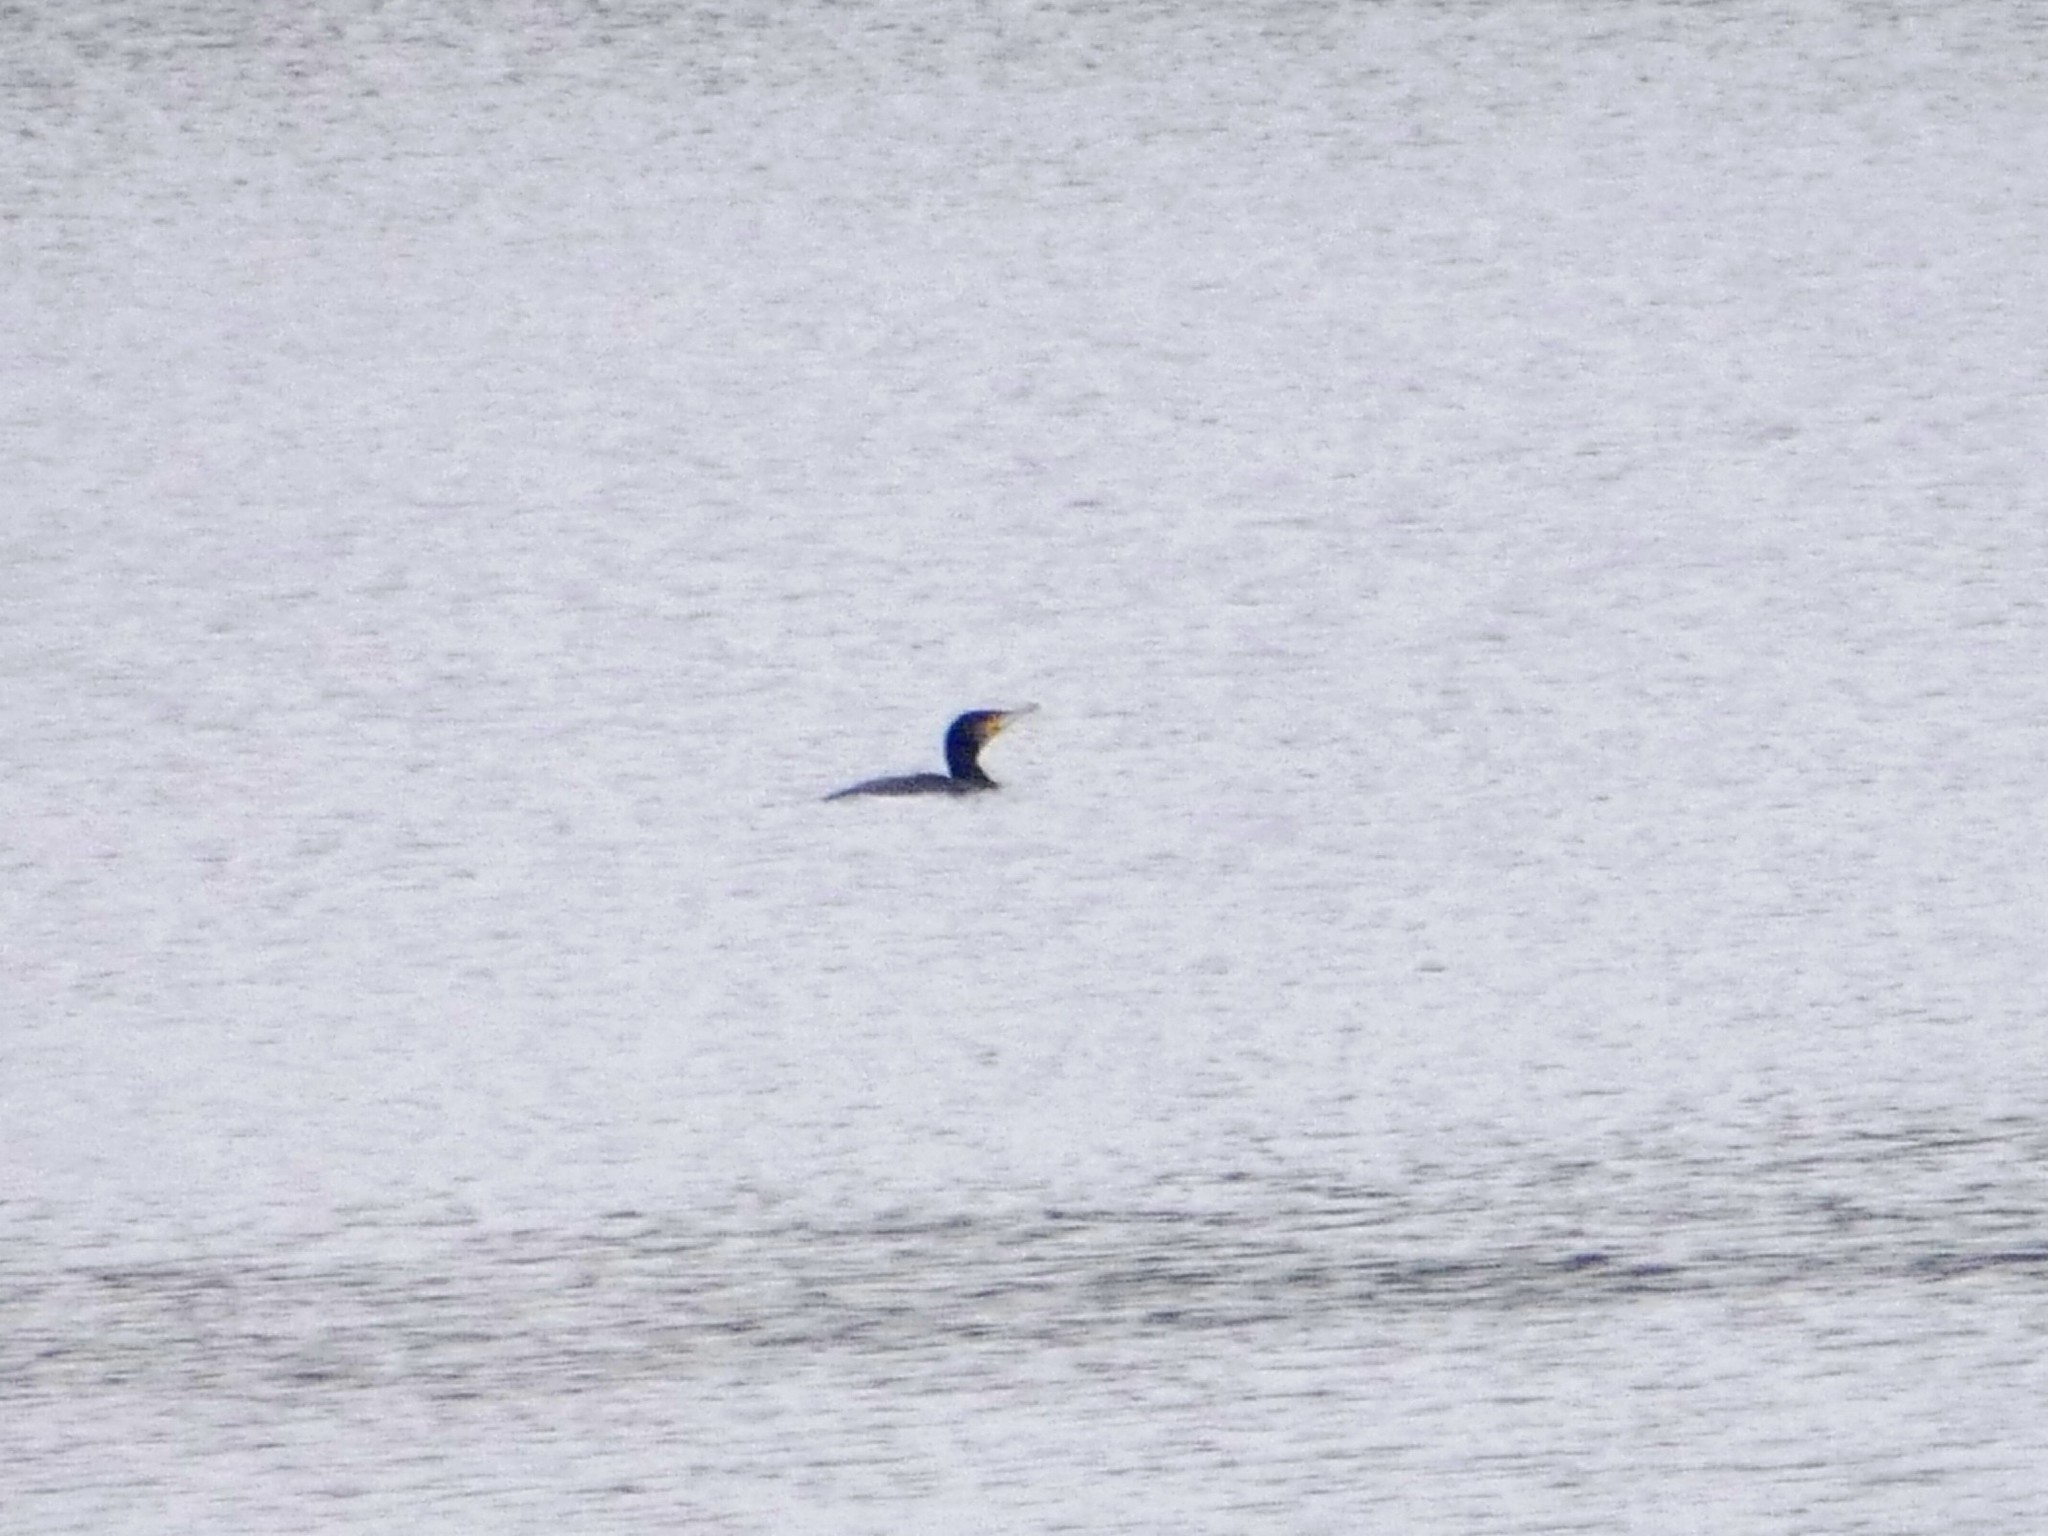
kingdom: Animalia
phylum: Chordata
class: Aves
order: Suliformes
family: Phalacrocoracidae
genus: Phalacrocorax
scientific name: Phalacrocorax carbo
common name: Great cormorant
